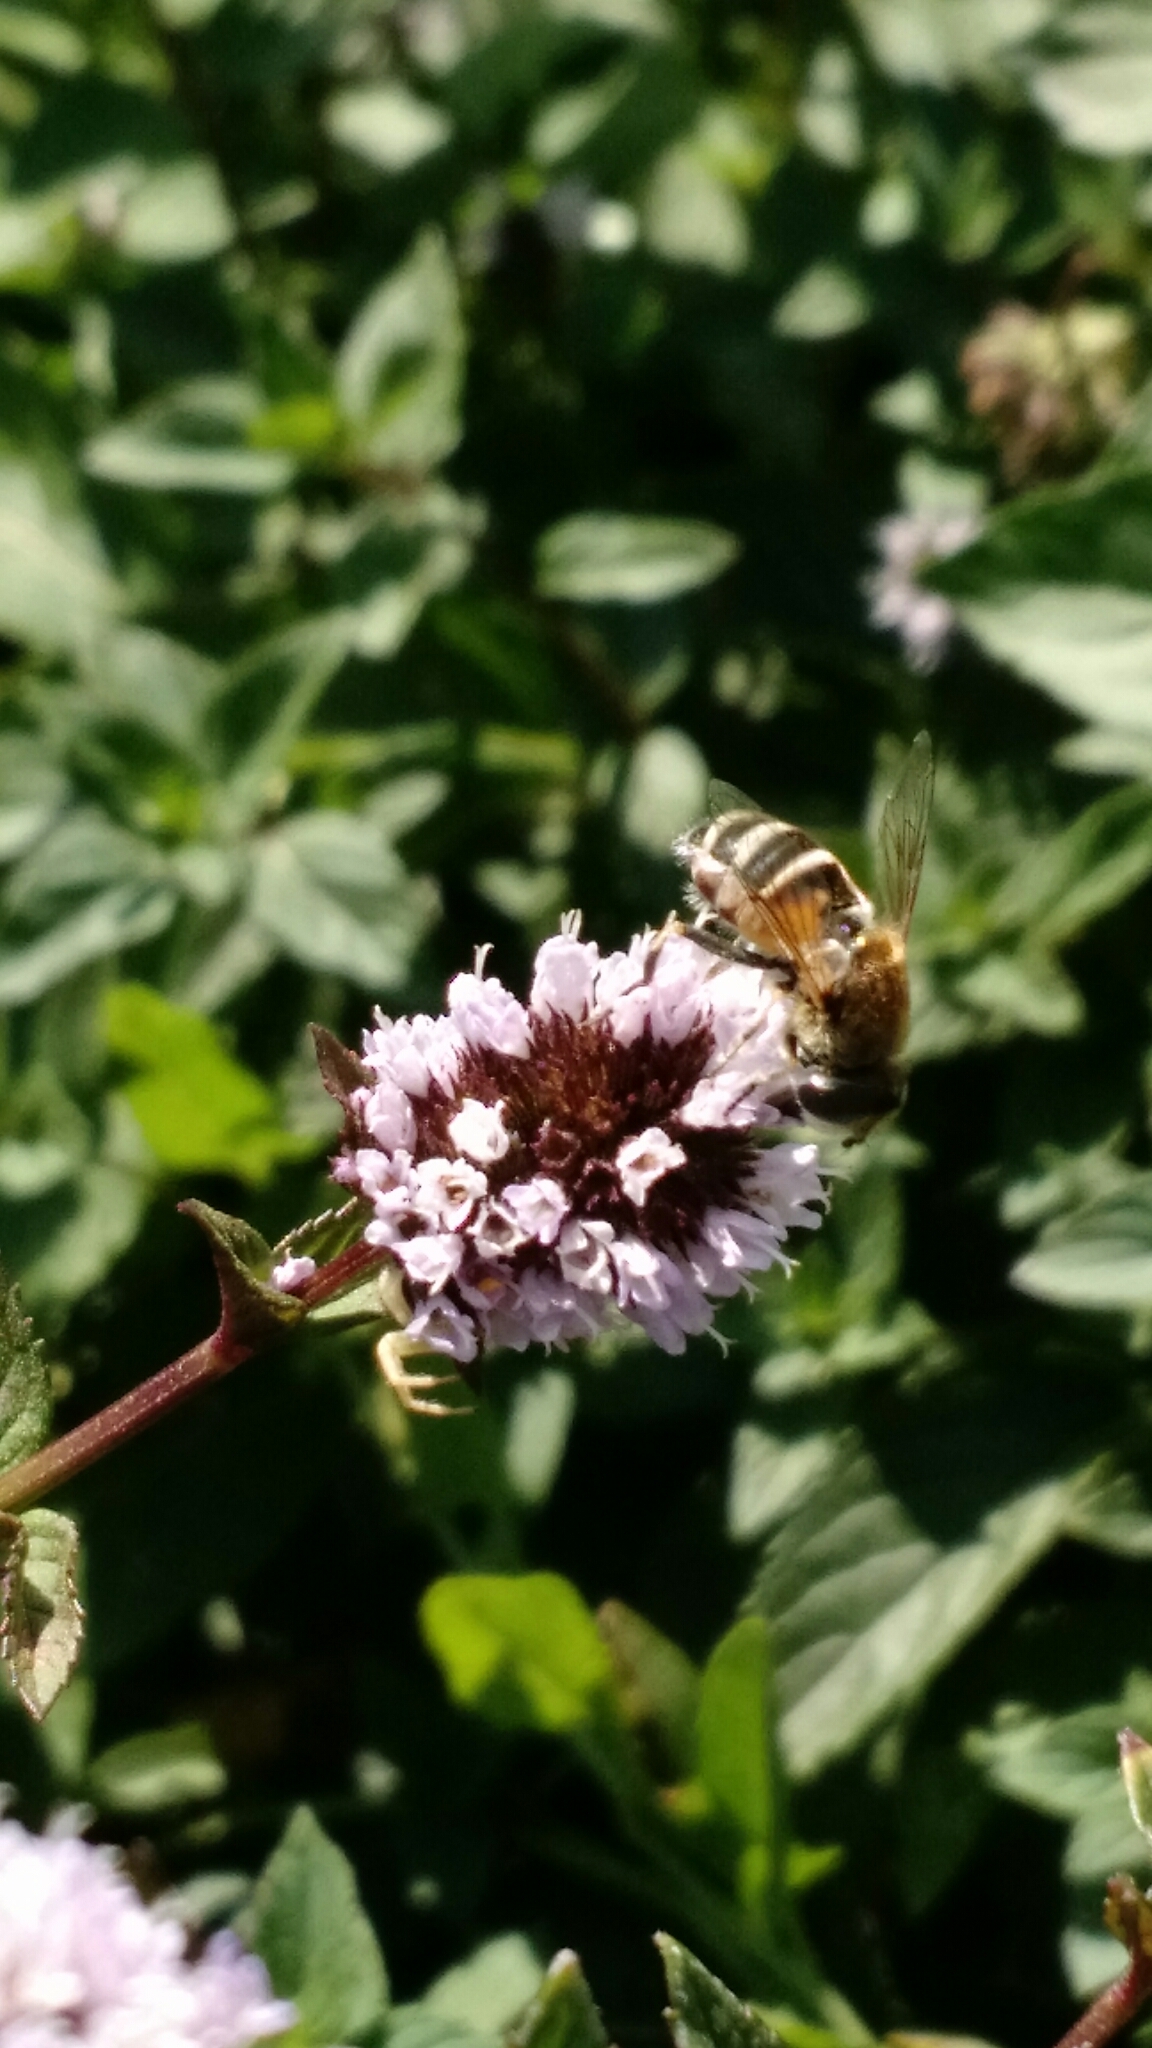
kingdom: Animalia
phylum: Arthropoda
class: Insecta
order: Diptera
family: Syrphidae
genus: Eristalis
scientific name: Eristalis arbustorum
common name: Hover fly
